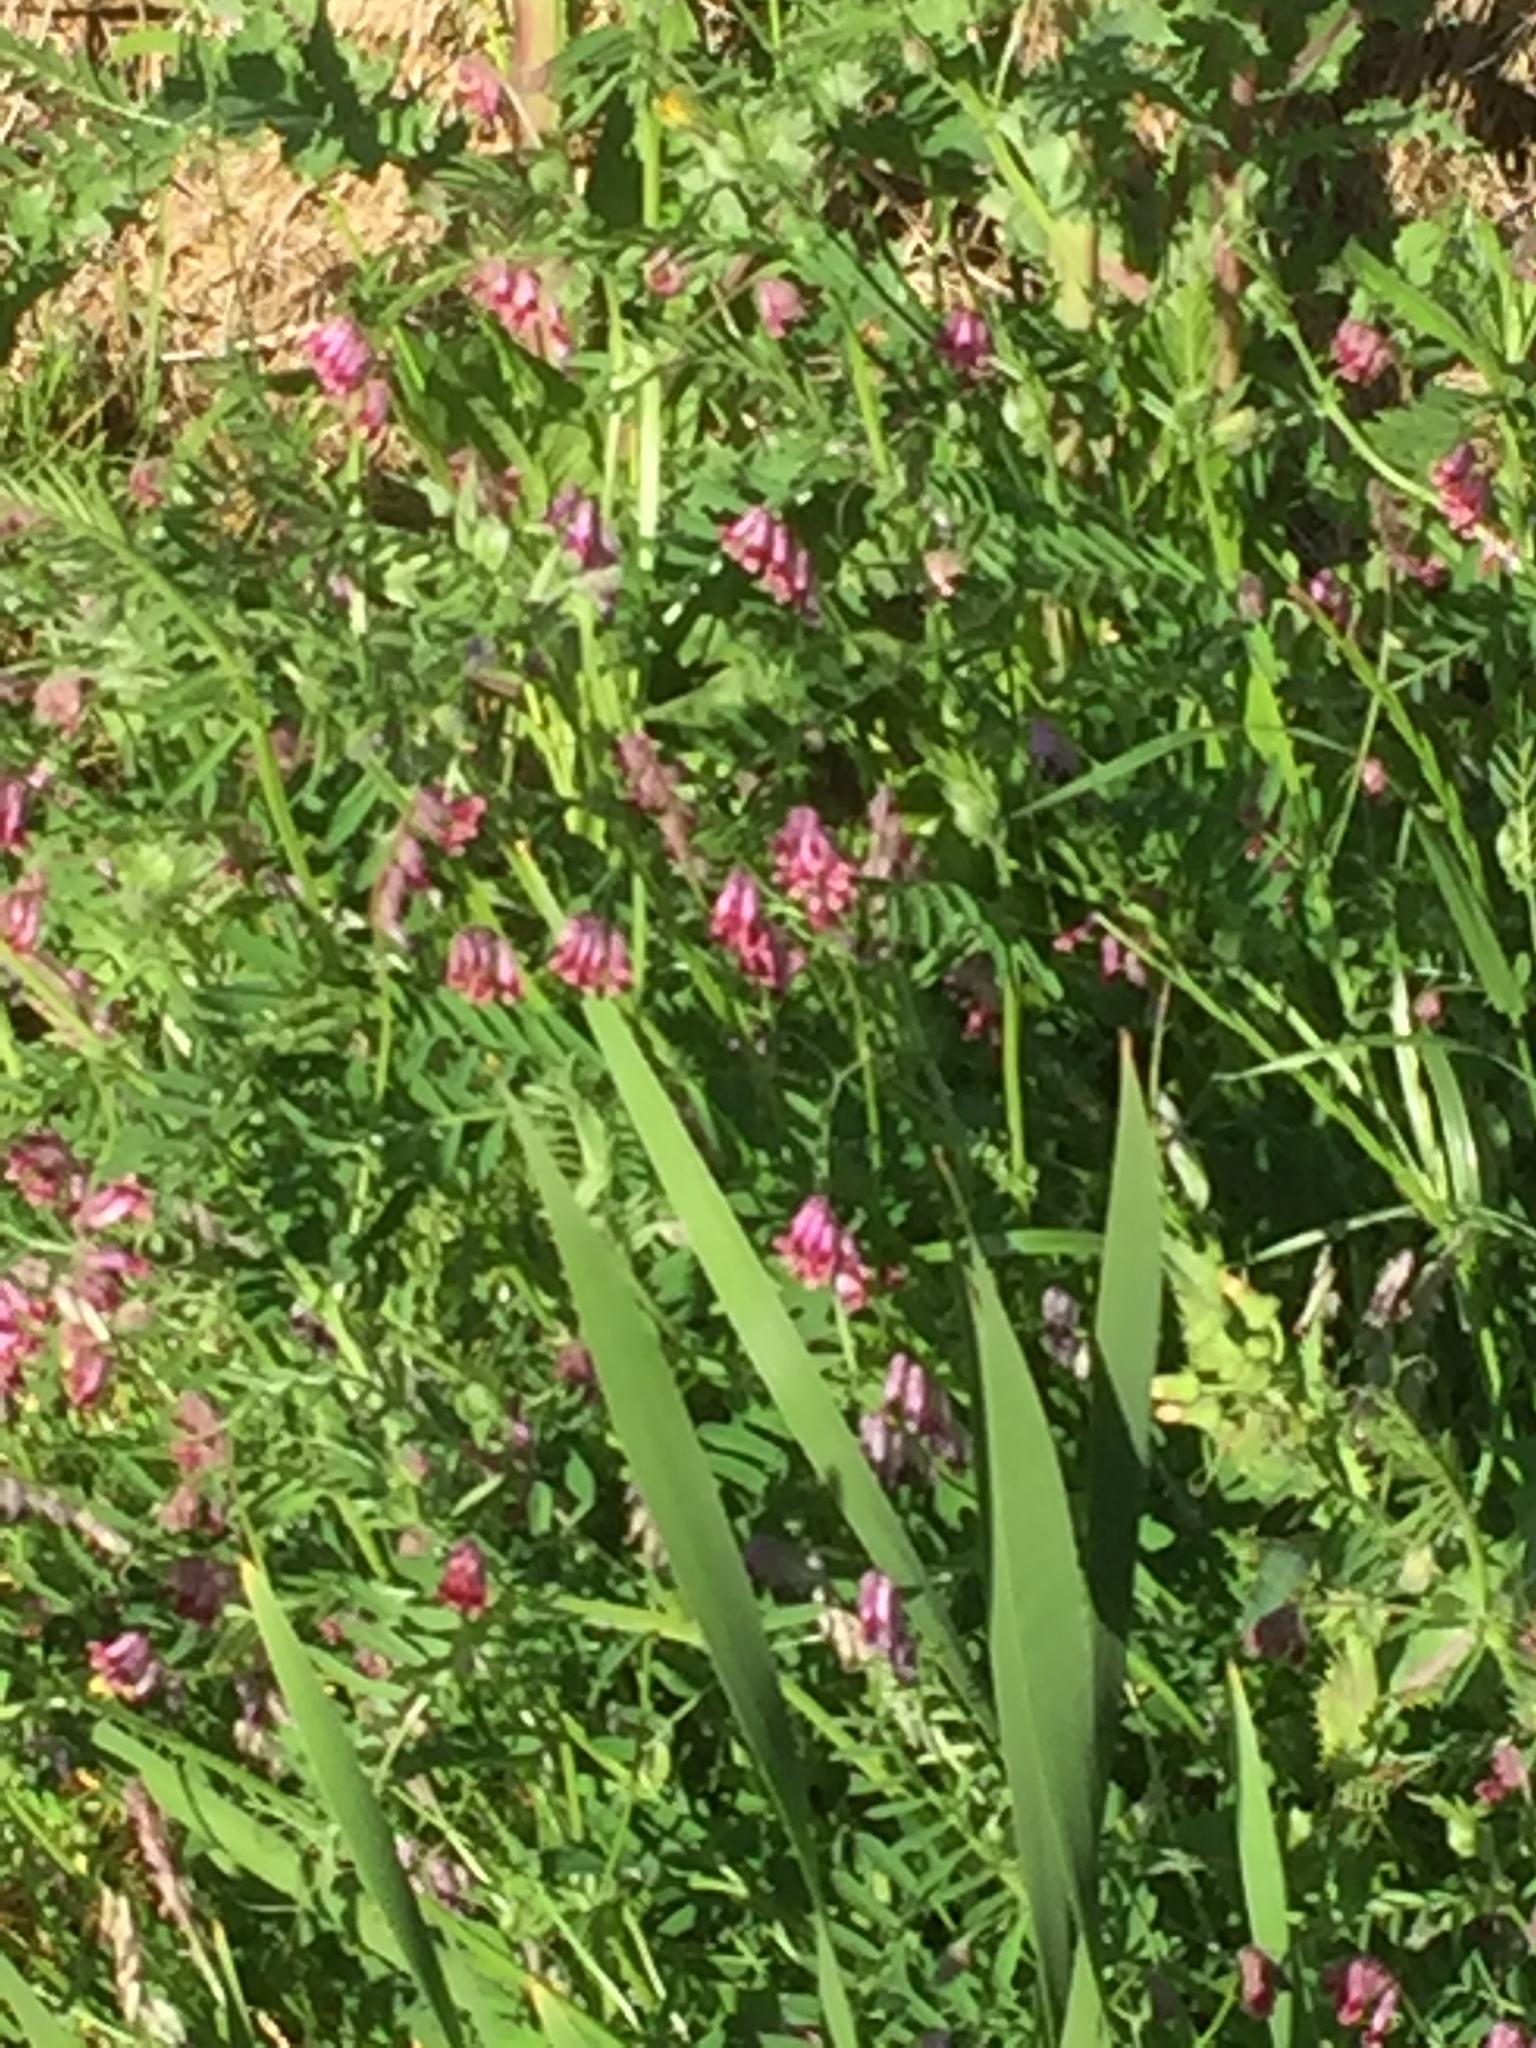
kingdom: Plantae
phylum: Tracheophyta
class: Magnoliopsida
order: Fabales
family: Fabaceae
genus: Vicia
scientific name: Vicia benghalensis
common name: Purple vetch
